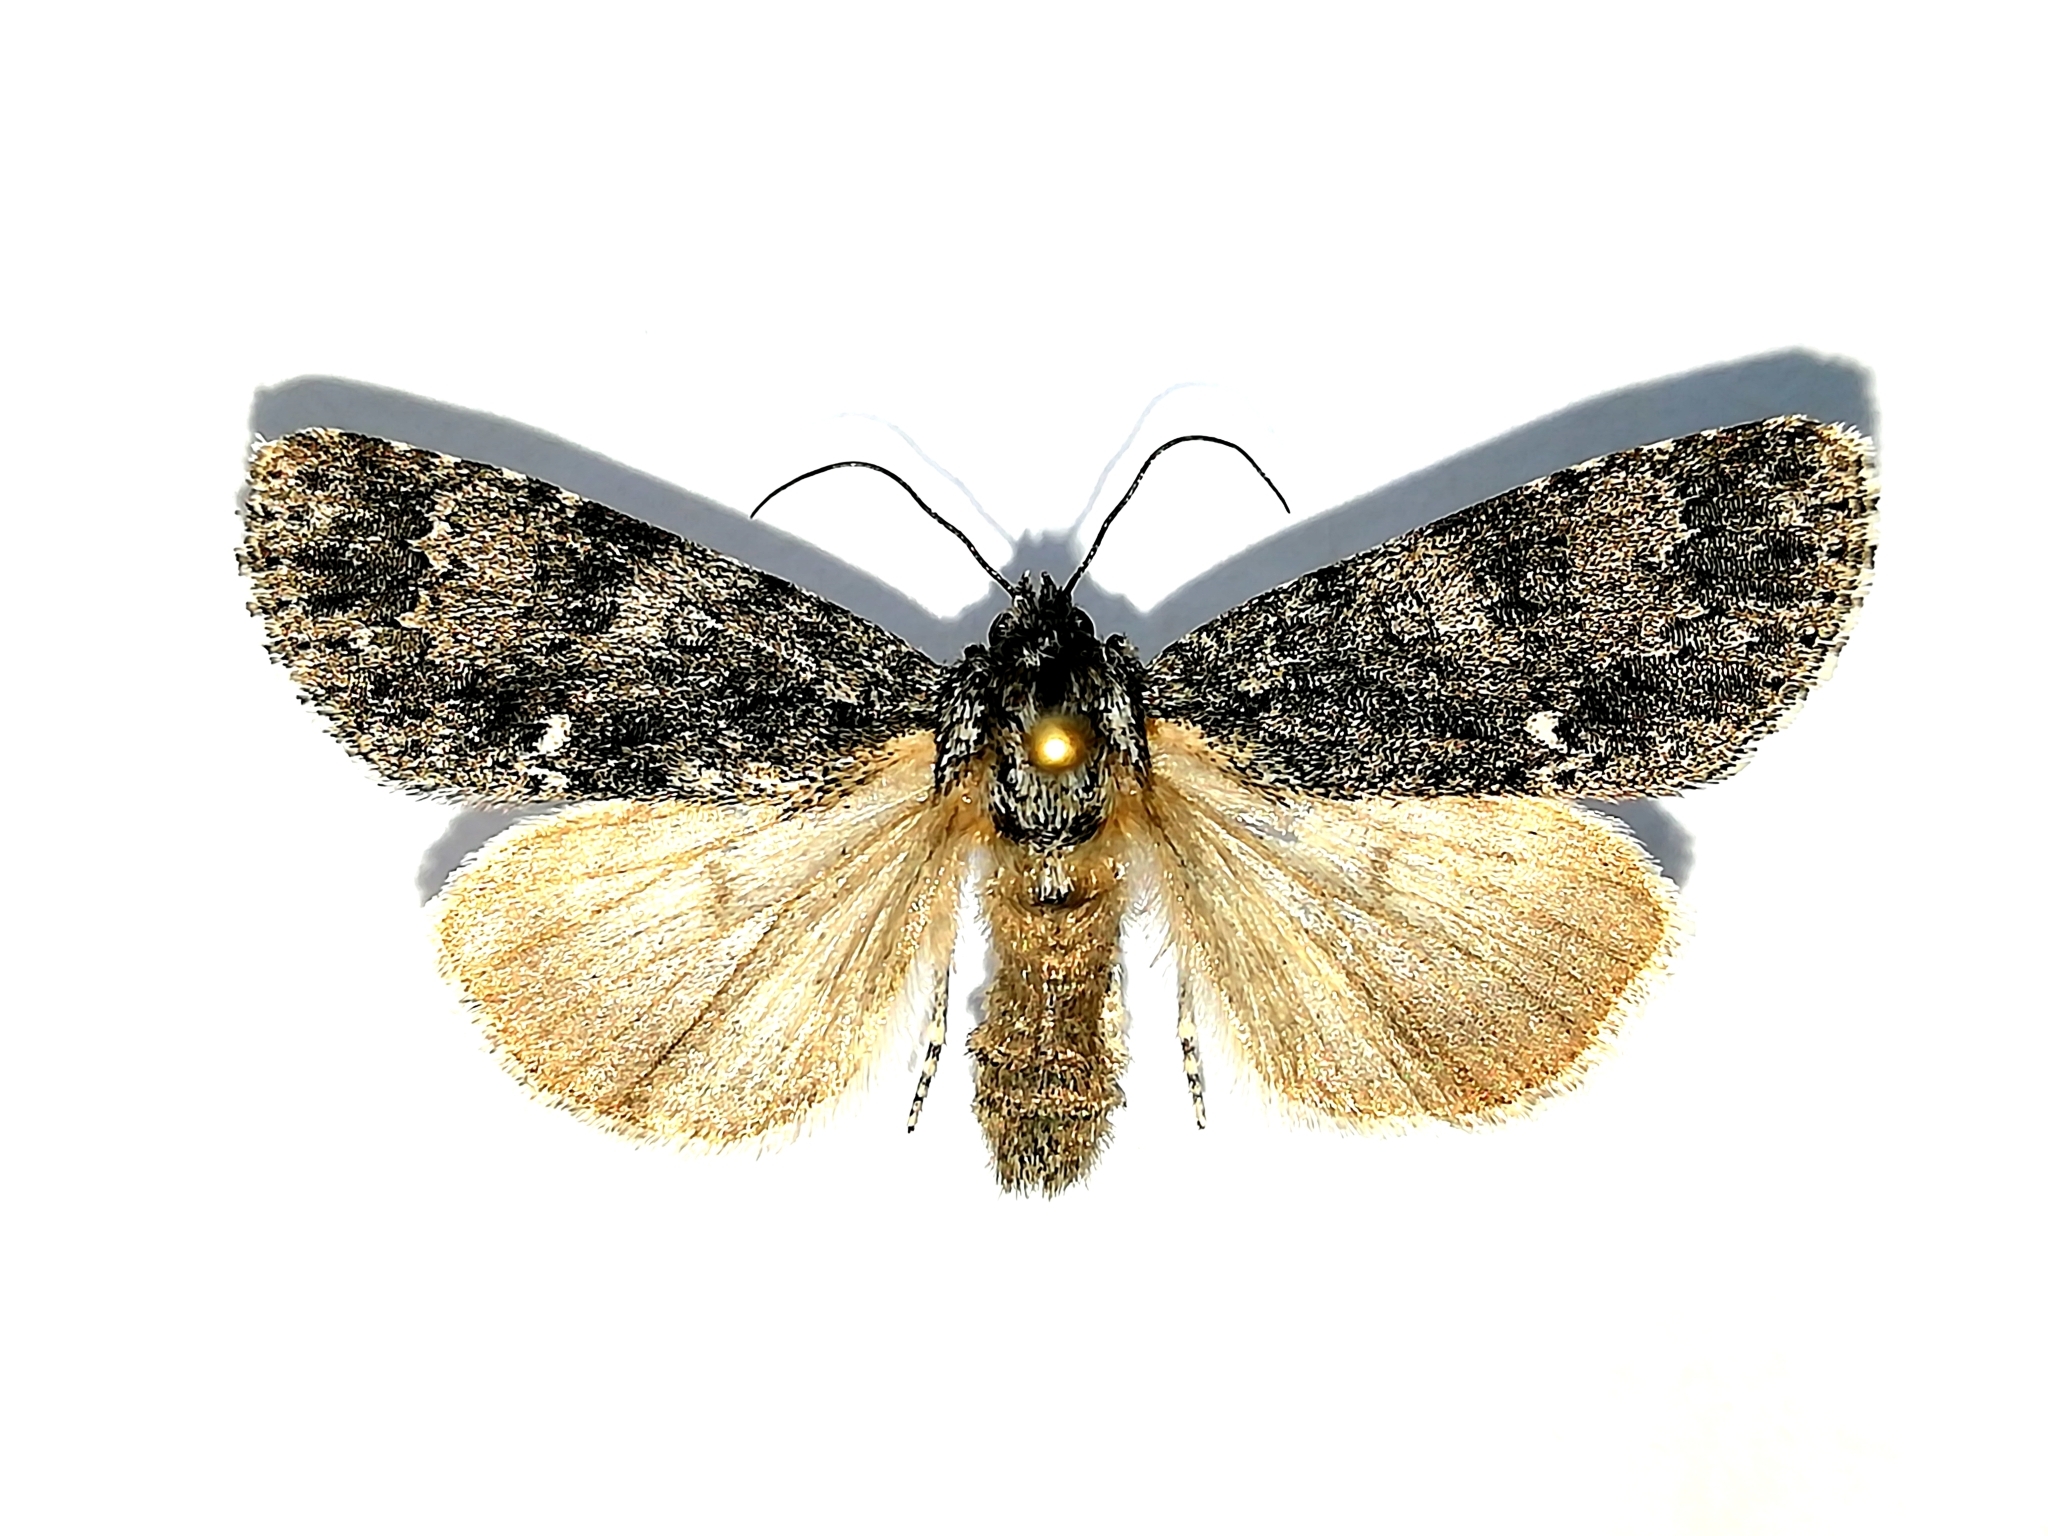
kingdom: Animalia
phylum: Arthropoda
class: Insecta
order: Lepidoptera
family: Noctuidae
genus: Acronicta
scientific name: Acronicta concerpta
